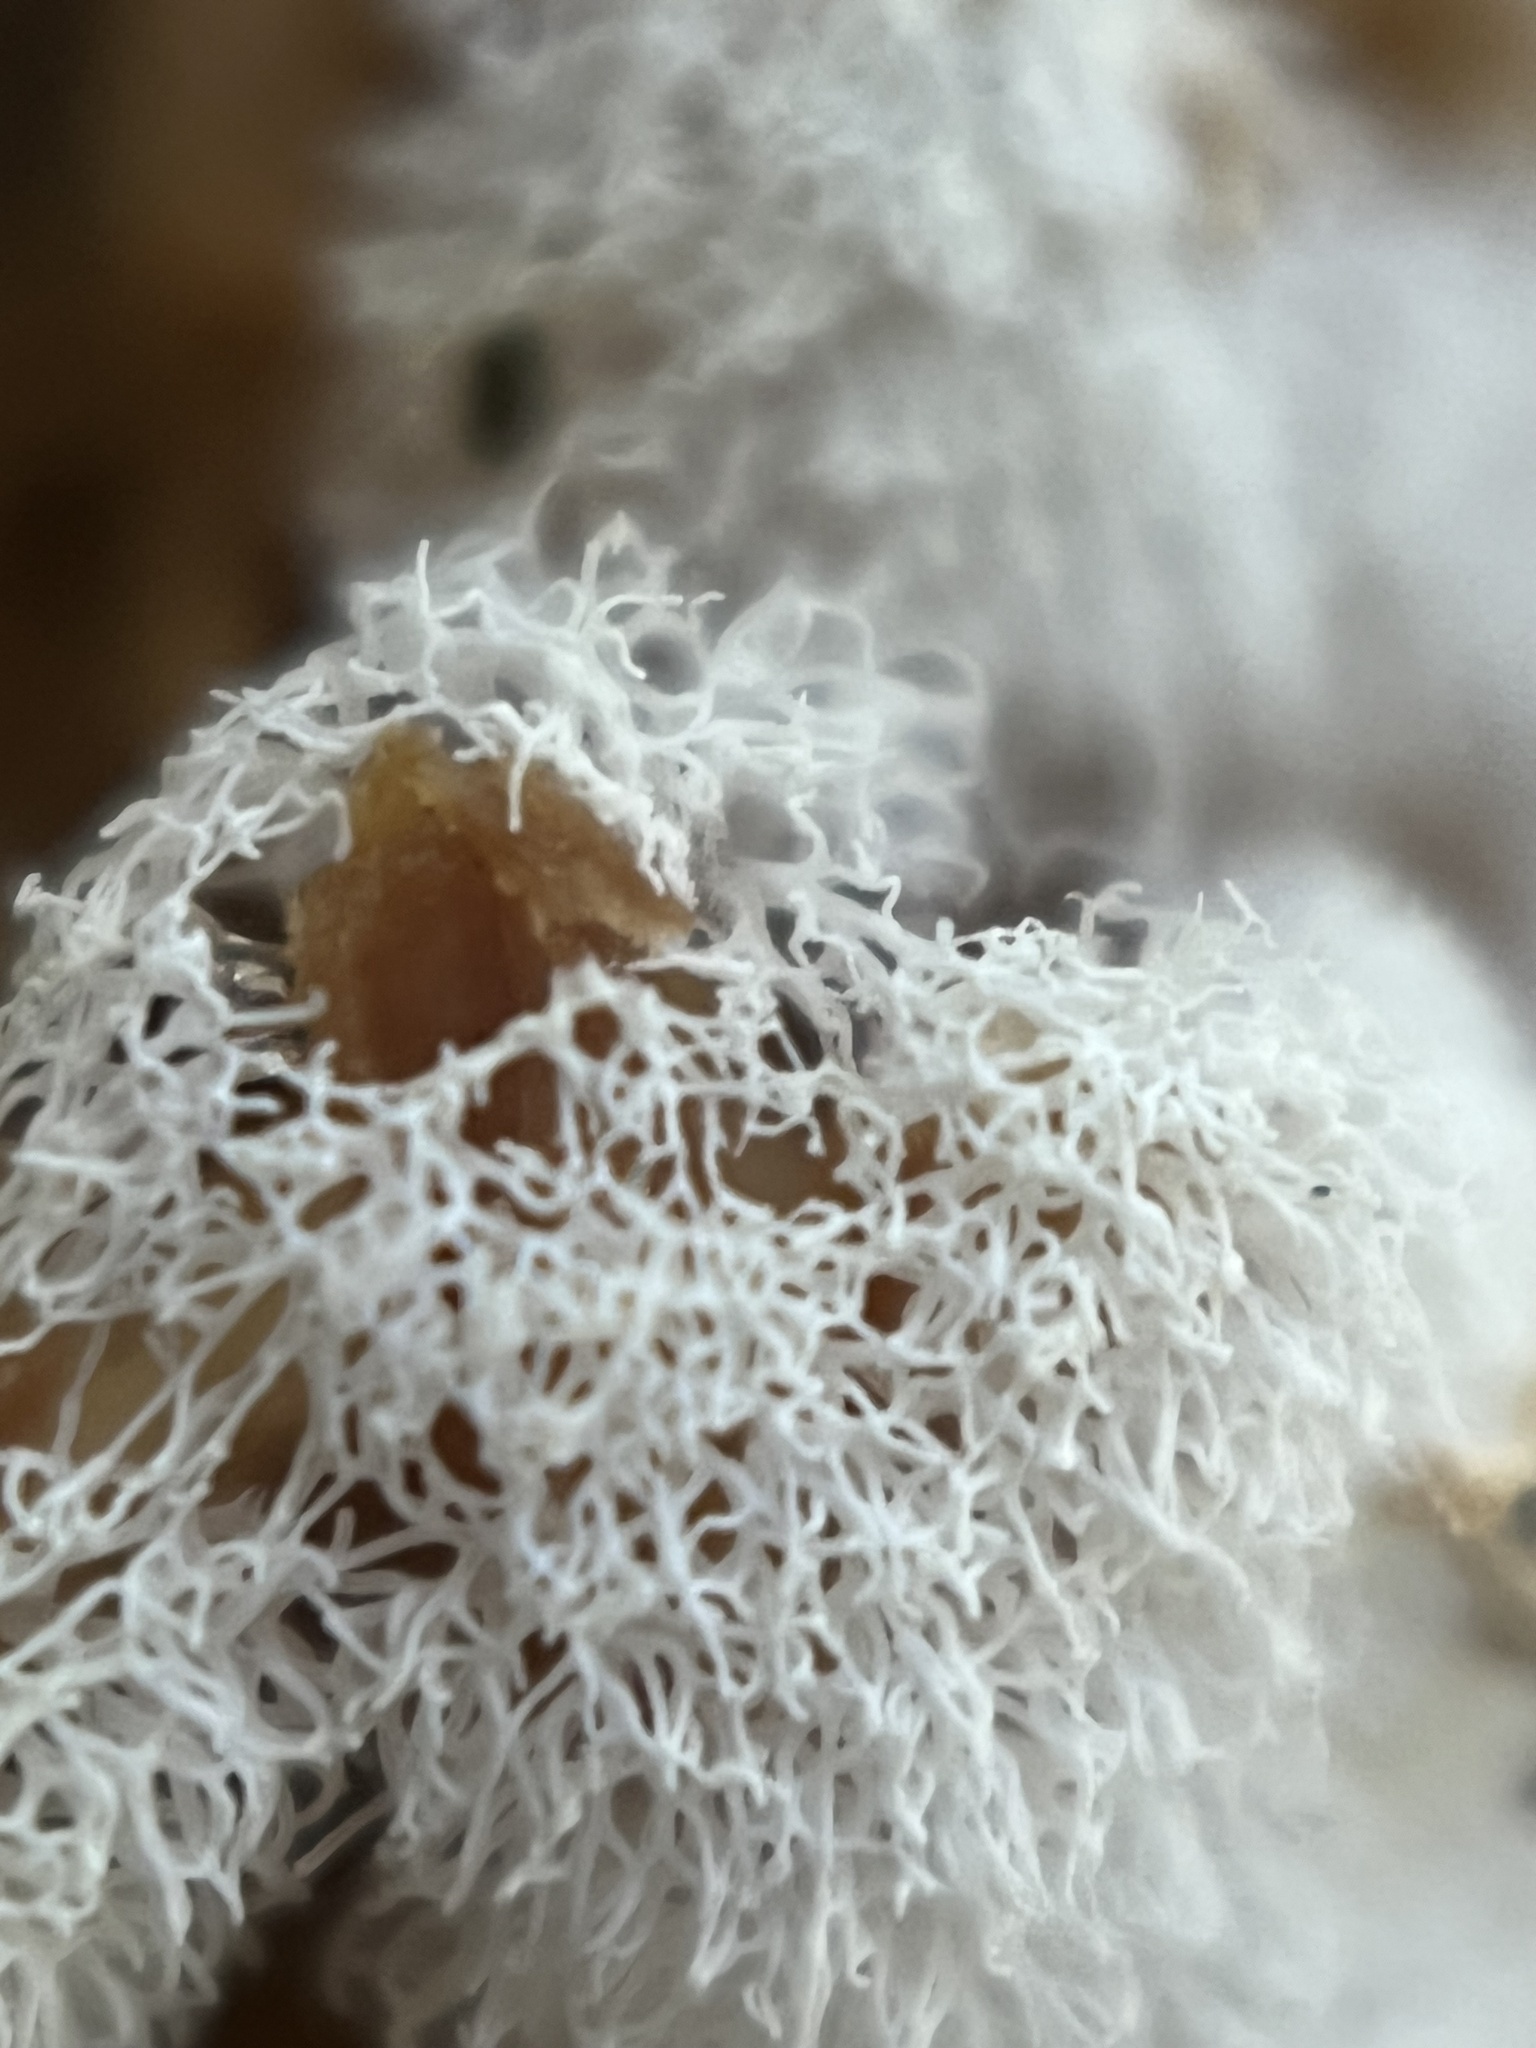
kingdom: Protozoa
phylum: Mycetozoa
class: Protosteliomycetes
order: Ceratiomyxales
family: Ceratiomyxaceae
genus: Ceratiomyxa
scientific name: Ceratiomyxa fruticulosa
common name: Honeycomb coral slime mold
